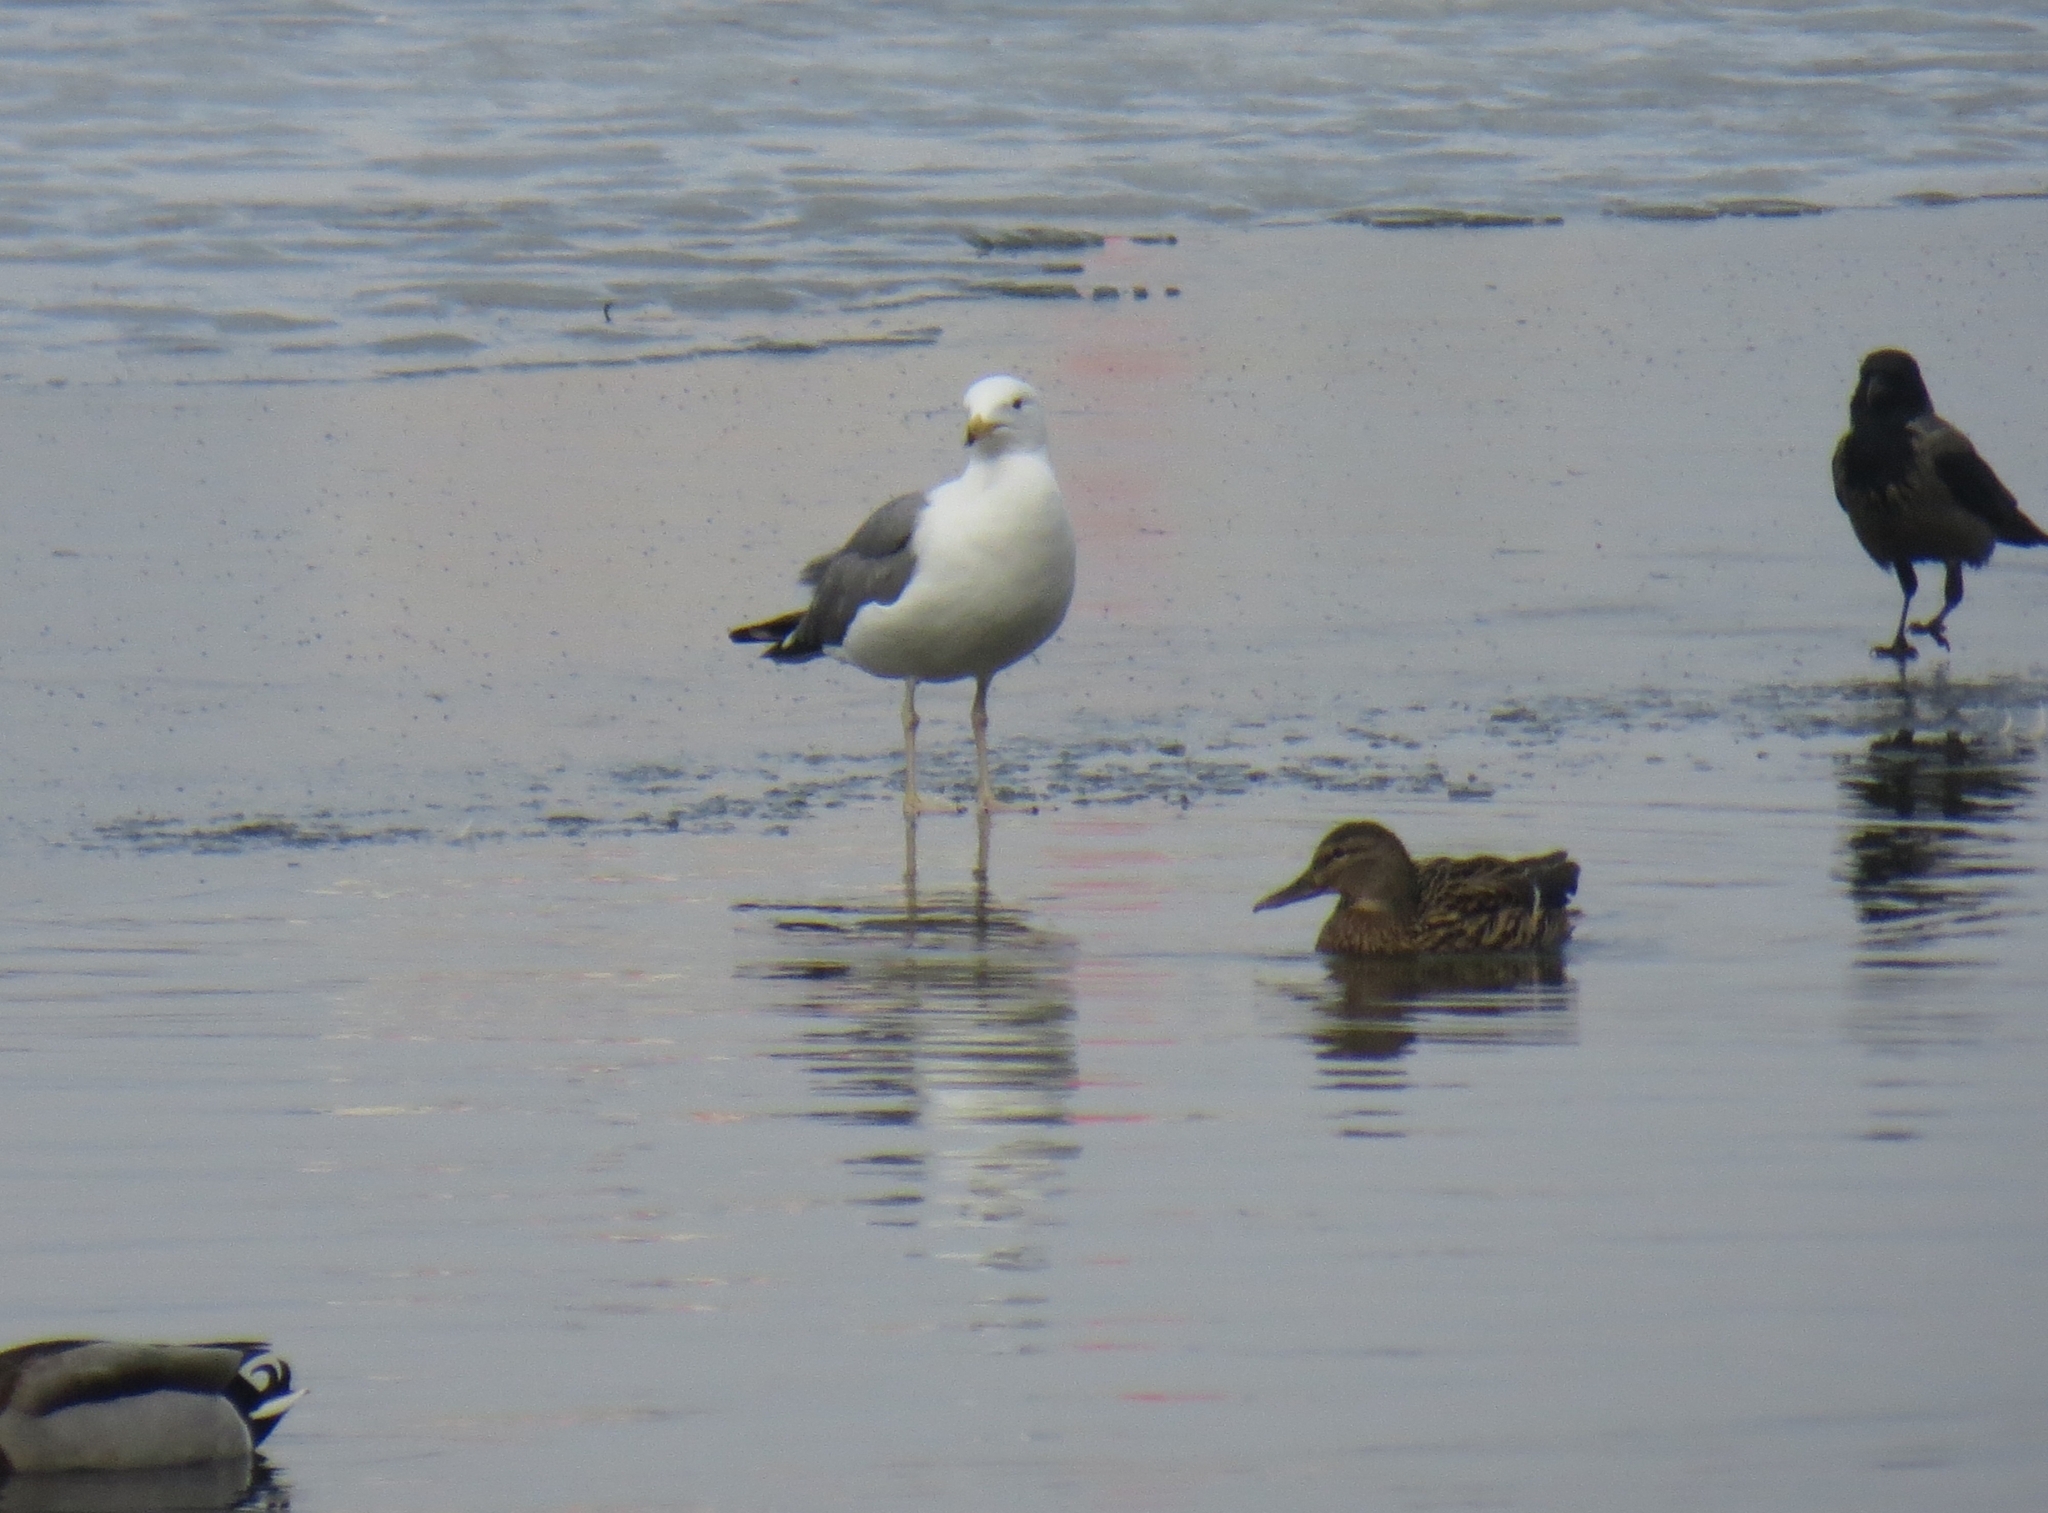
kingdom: Animalia
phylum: Chordata
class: Aves
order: Charadriiformes
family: Laridae
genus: Larus
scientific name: Larus fuscus
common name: Lesser black-backed gull
